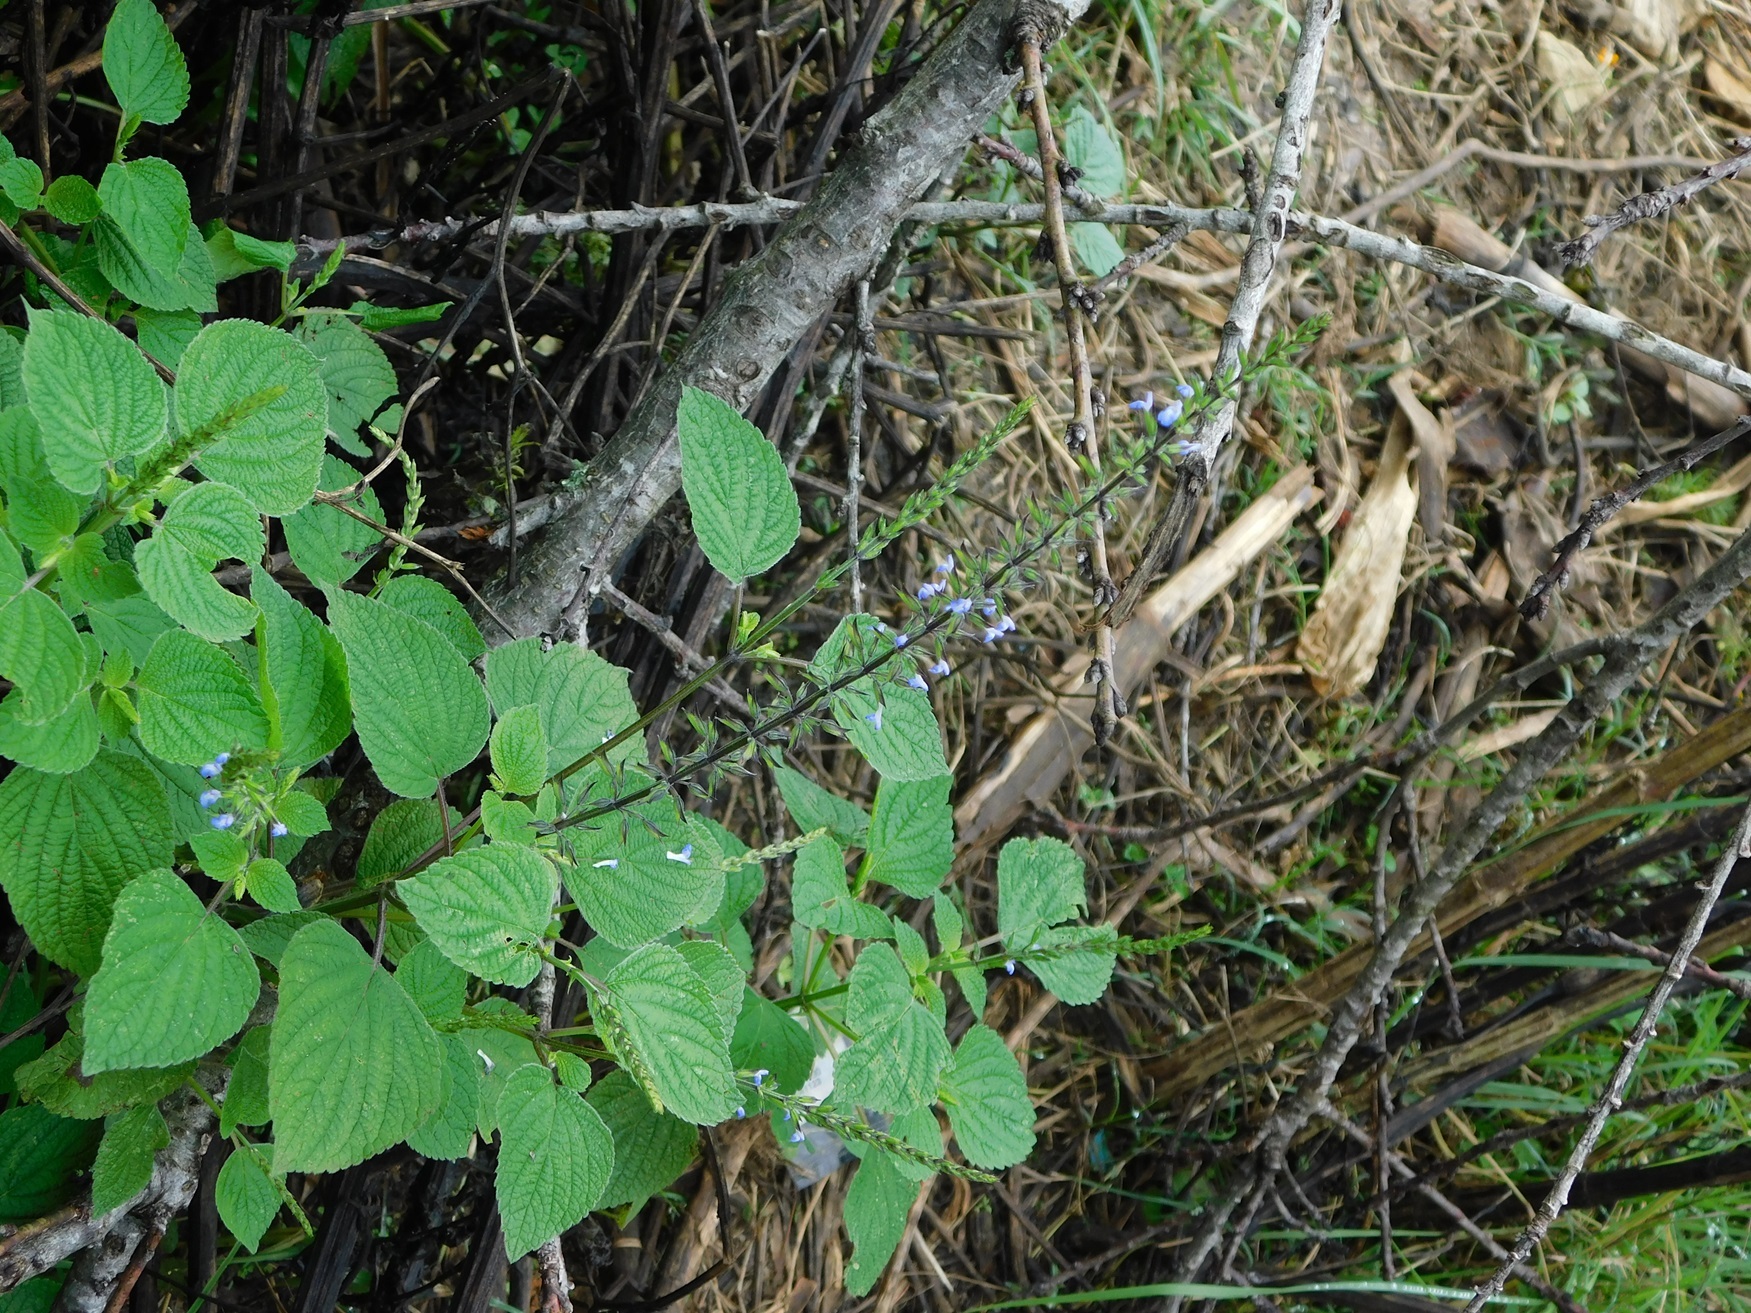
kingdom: Plantae
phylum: Tracheophyta
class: Magnoliopsida
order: Lamiales
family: Lamiaceae
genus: Salvia
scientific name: Salvia tiliifolia
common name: Lindenleaf sage
